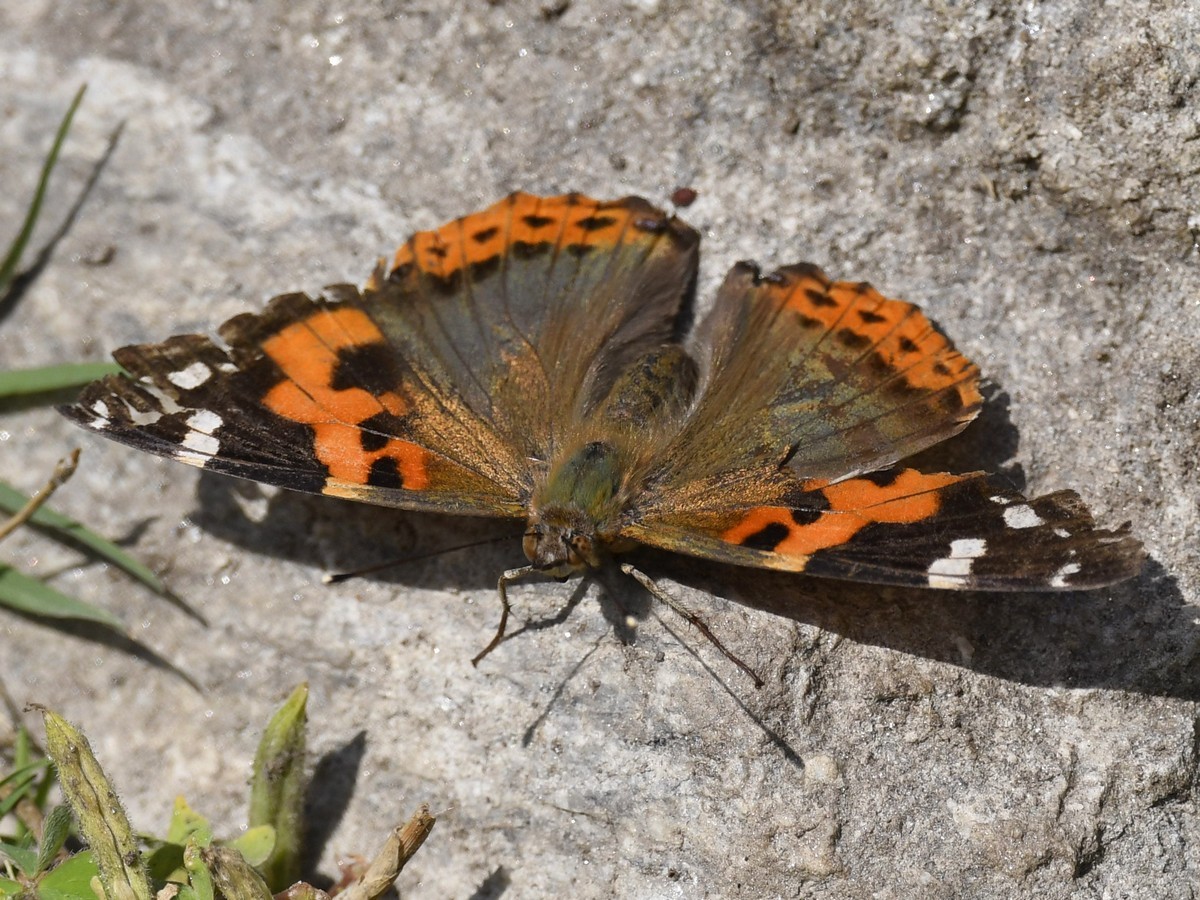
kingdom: Animalia
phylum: Arthropoda
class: Insecta
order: Lepidoptera
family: Nymphalidae
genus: Vanessa
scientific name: Vanessa indica
